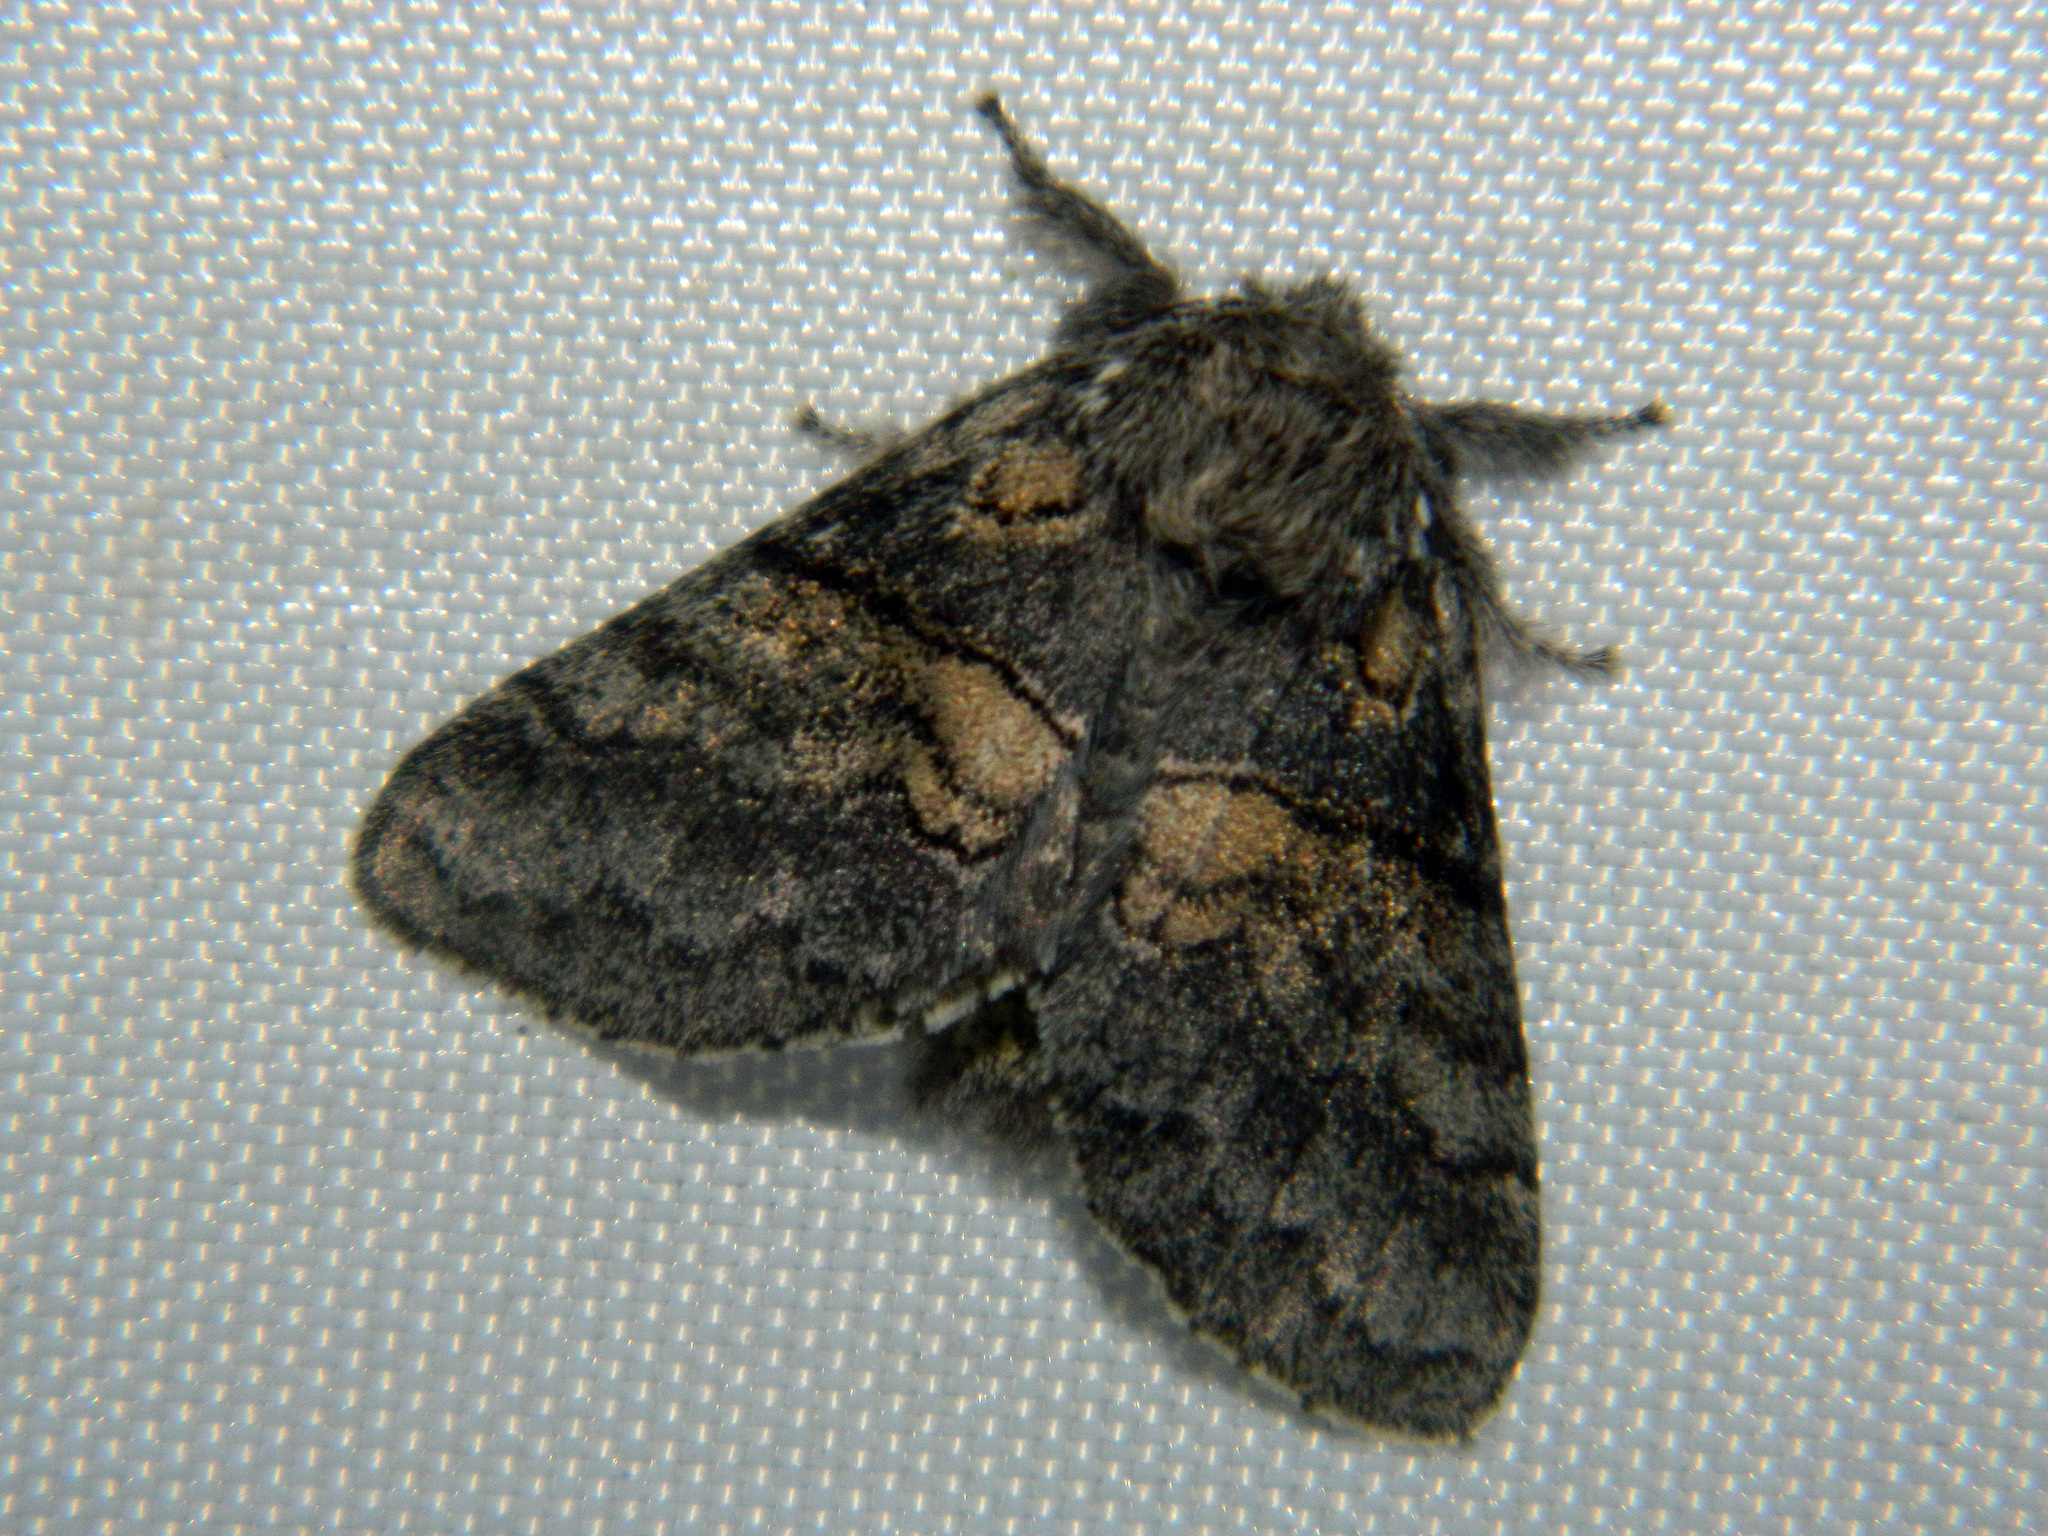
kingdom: Animalia
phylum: Arthropoda
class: Insecta
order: Lepidoptera
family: Notodontidae
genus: Gluphisia
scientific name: Gluphisia septentrionis
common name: Common gluphisia
